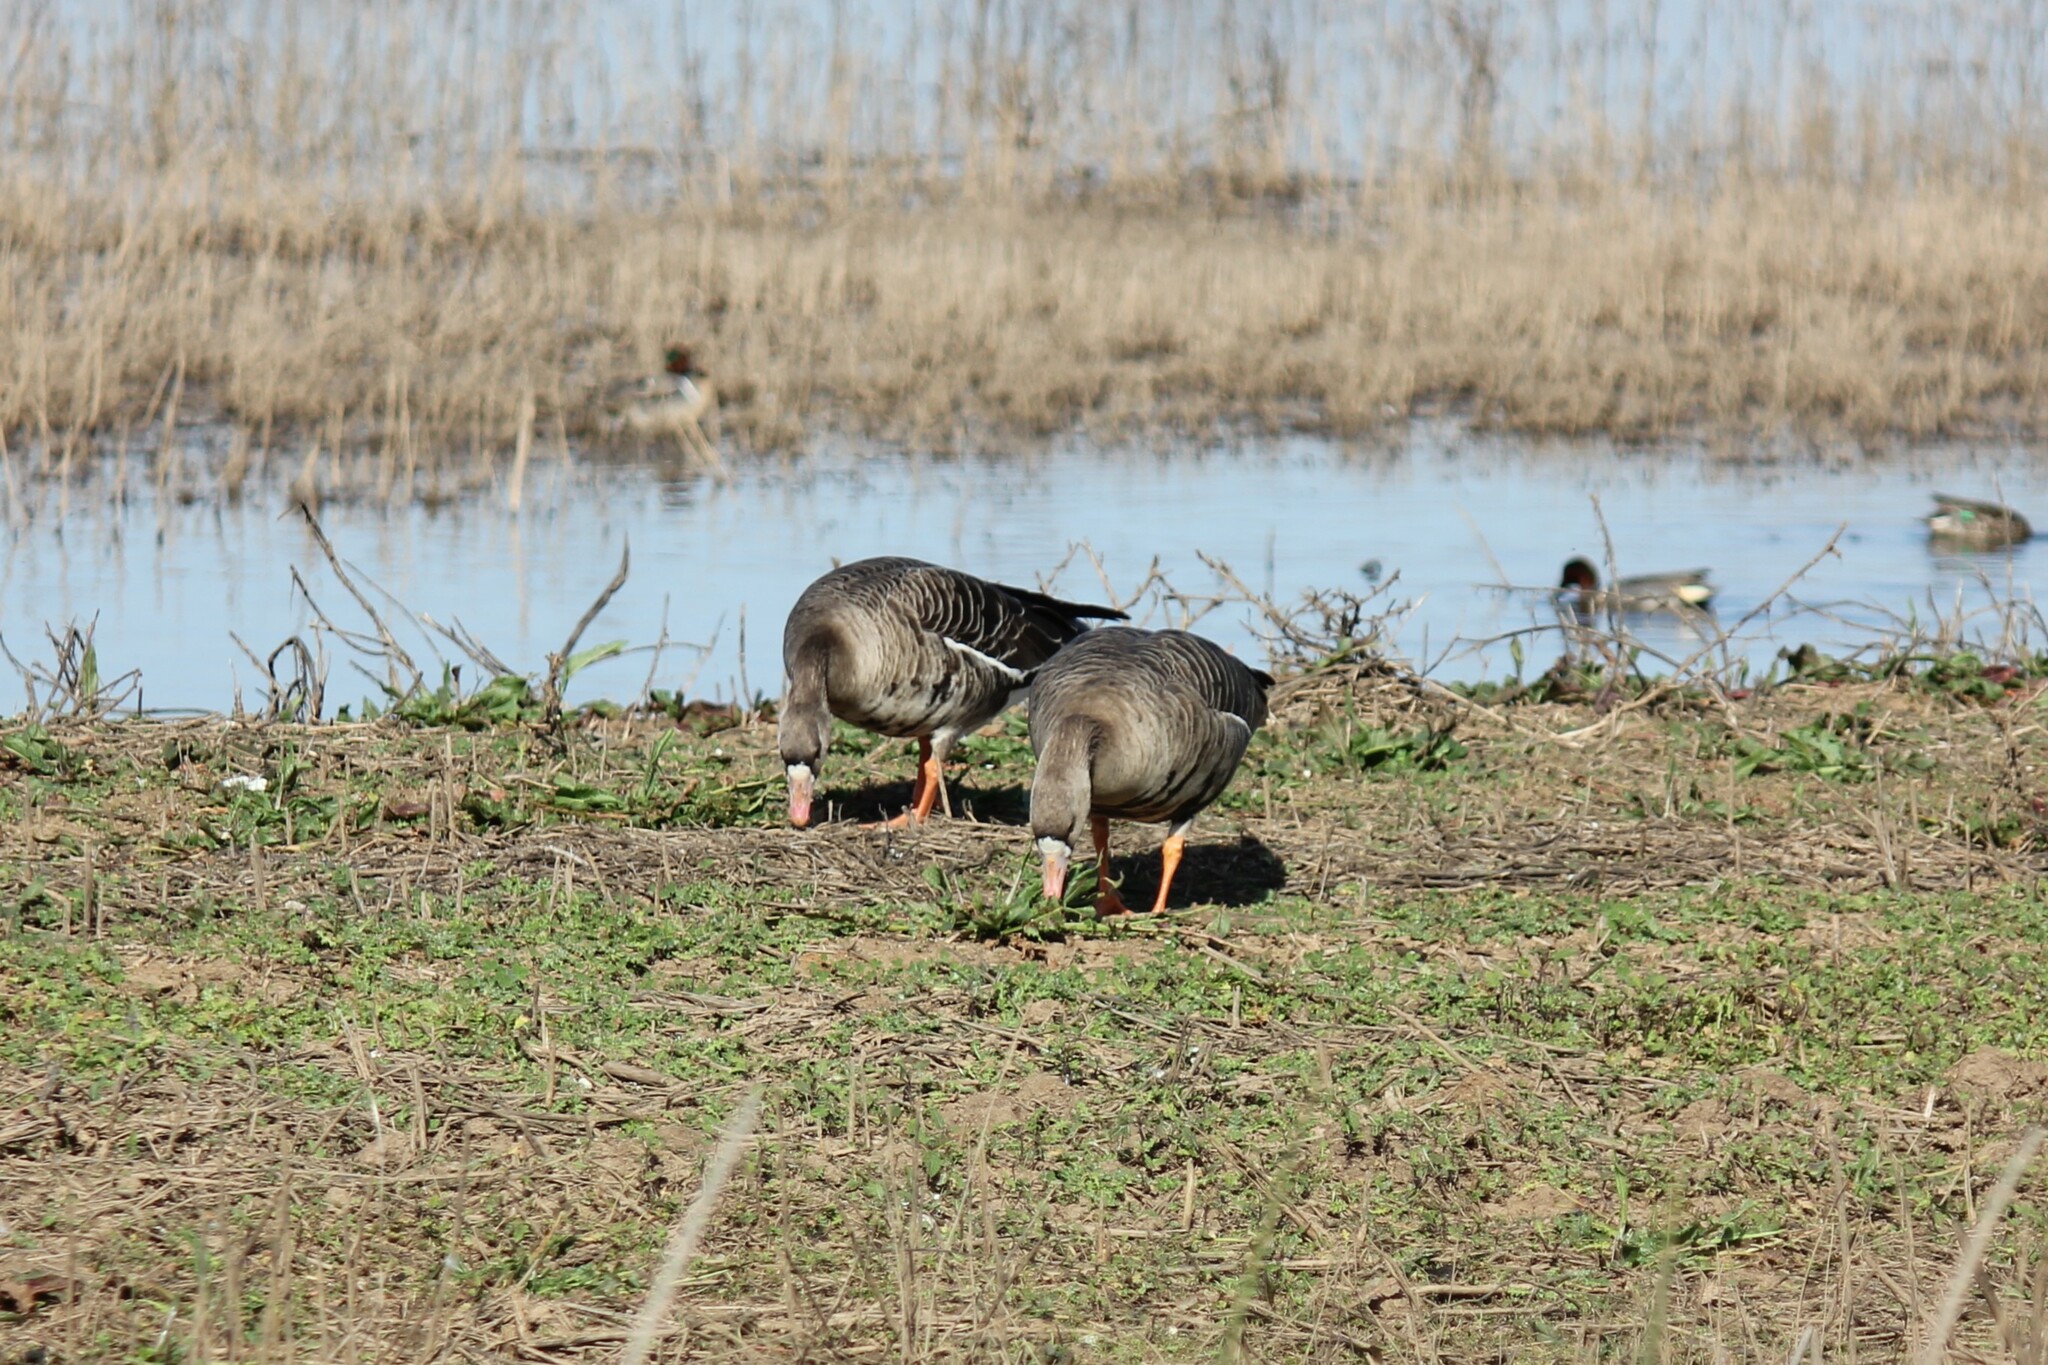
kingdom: Animalia
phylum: Chordata
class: Aves
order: Anseriformes
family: Anatidae
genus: Anser
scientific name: Anser albifrons
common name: Greater white-fronted goose
